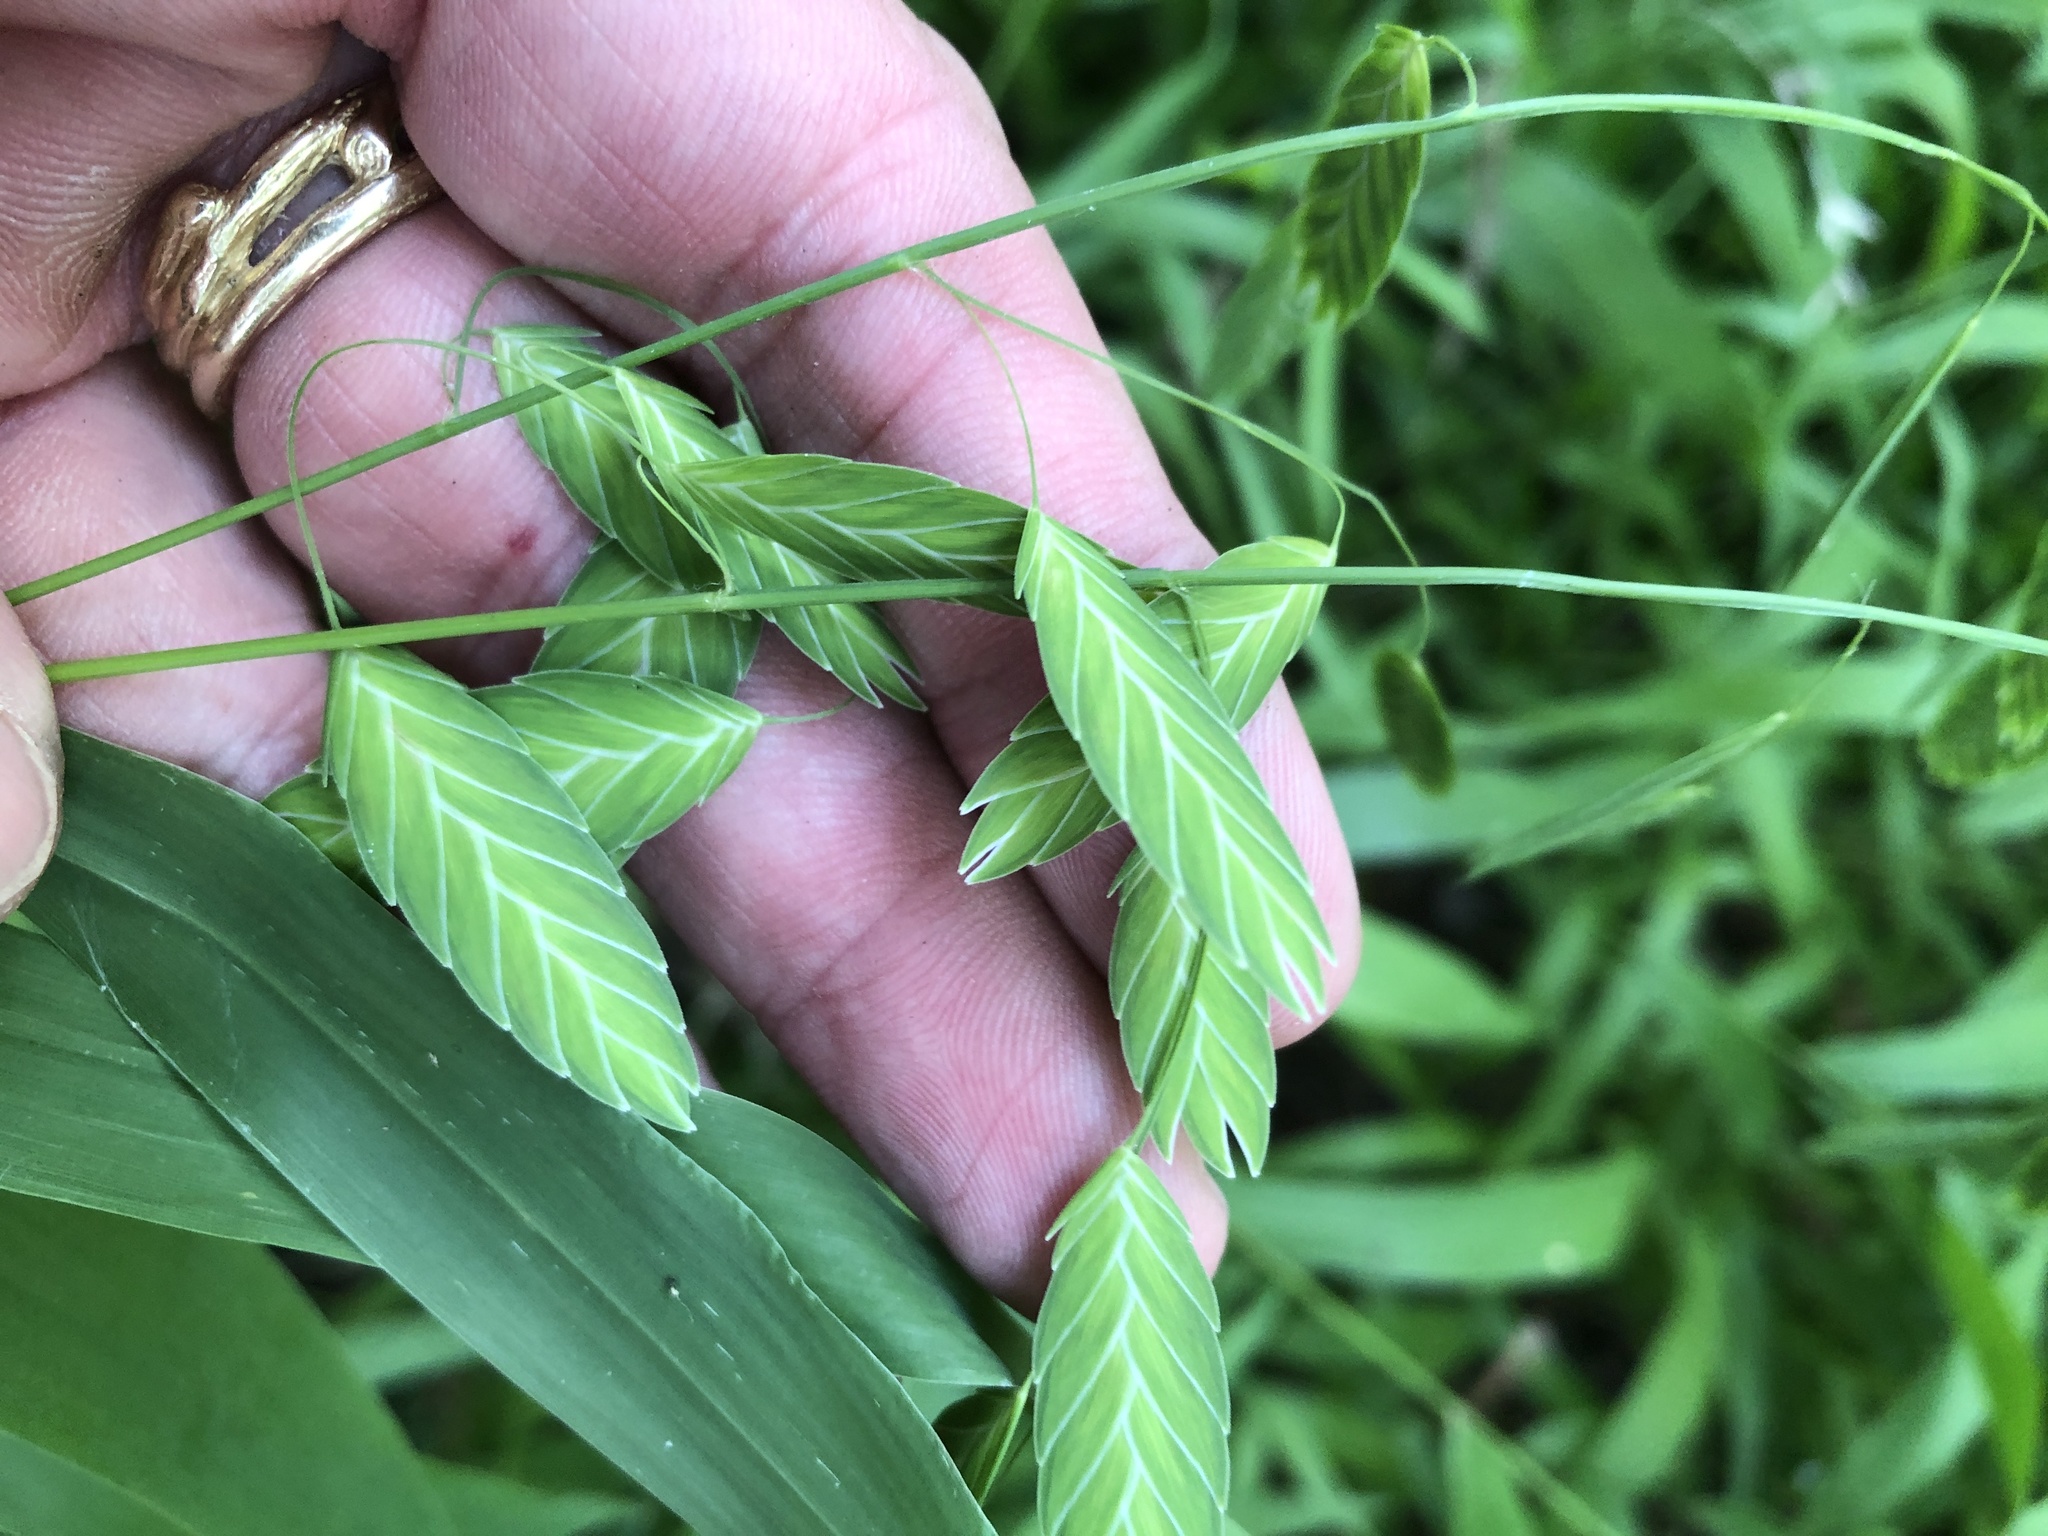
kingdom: Plantae
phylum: Tracheophyta
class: Liliopsida
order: Poales
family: Poaceae
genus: Chasmanthium
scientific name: Chasmanthium latifolium
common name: Broad-leaved chasmanthium
